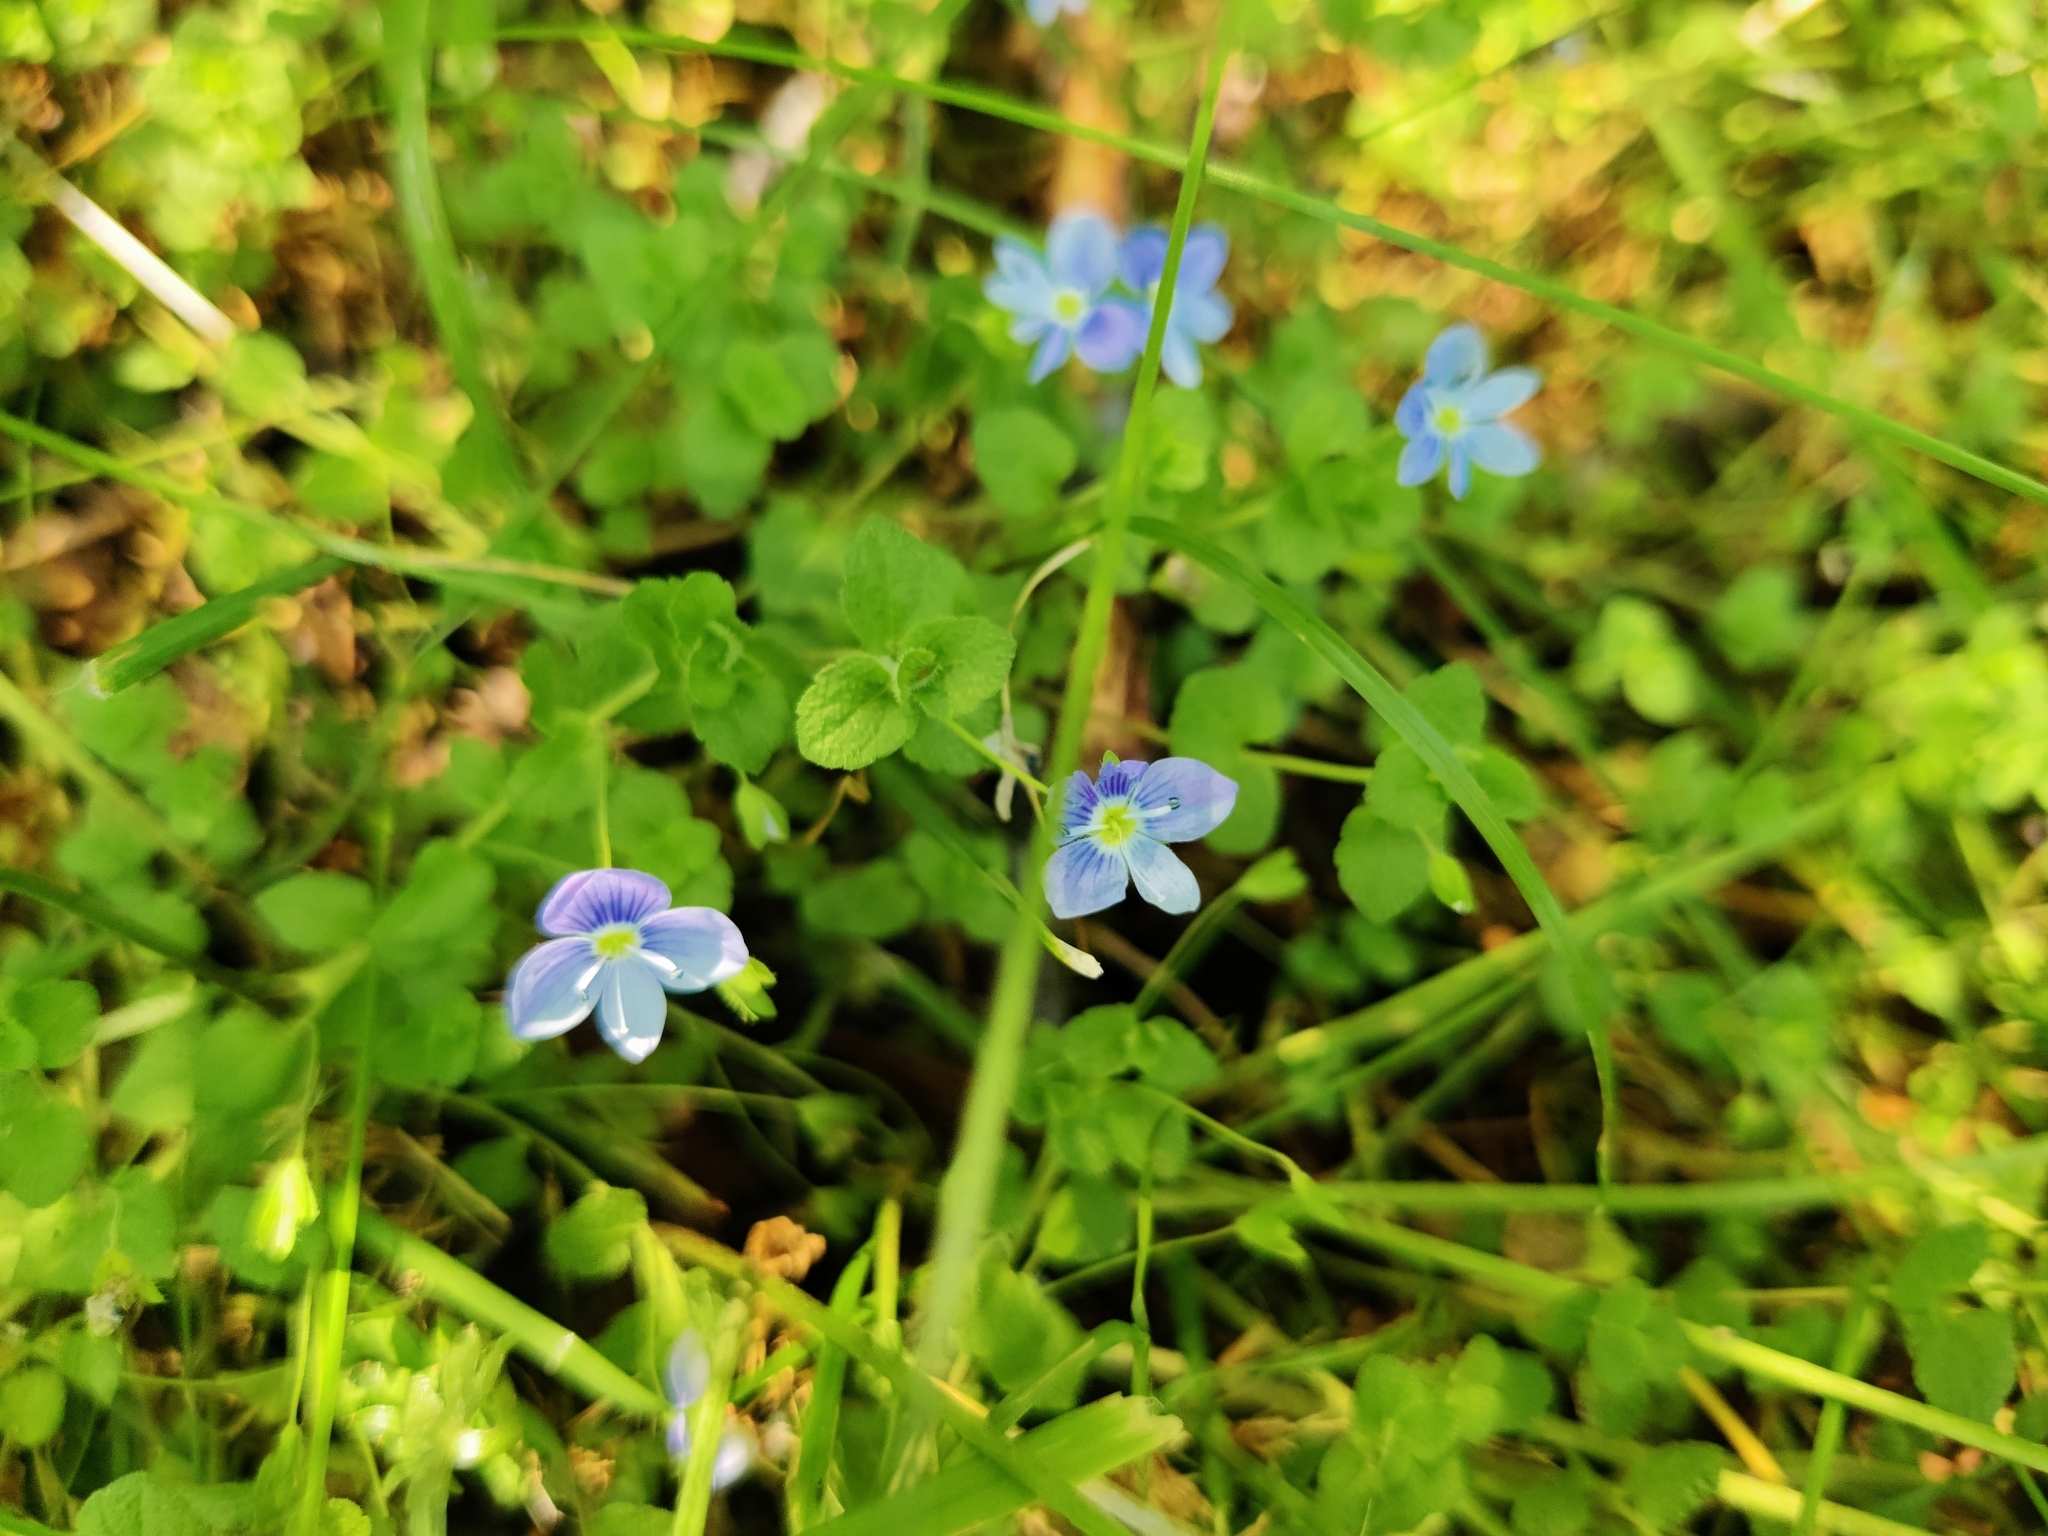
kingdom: Plantae
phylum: Tracheophyta
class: Magnoliopsida
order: Lamiales
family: Plantaginaceae
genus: Veronica
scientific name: Veronica filiformis
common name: Slender speedwell
